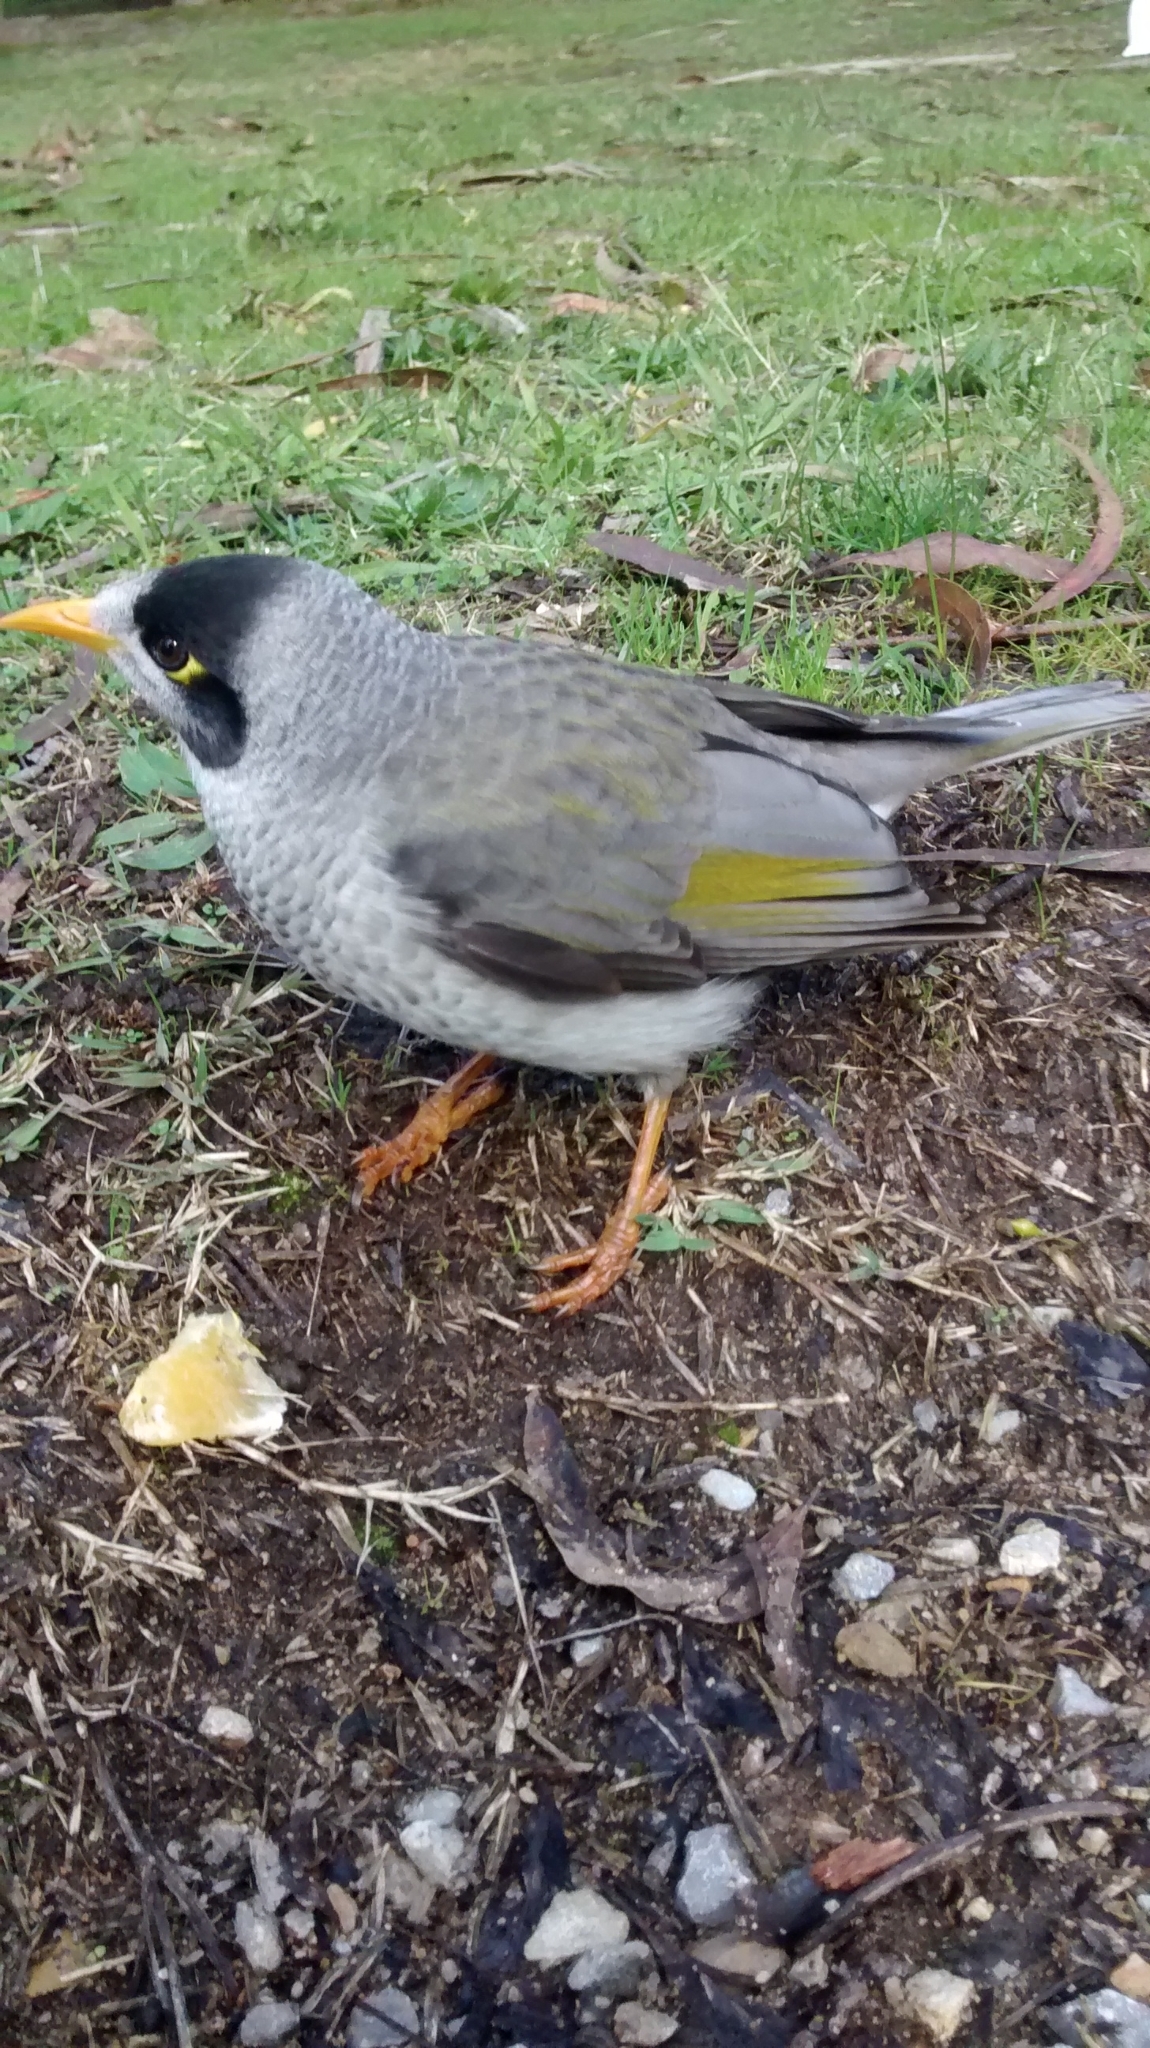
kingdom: Animalia
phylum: Chordata
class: Aves
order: Passeriformes
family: Meliphagidae
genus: Manorina
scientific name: Manorina melanocephala
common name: Noisy miner
